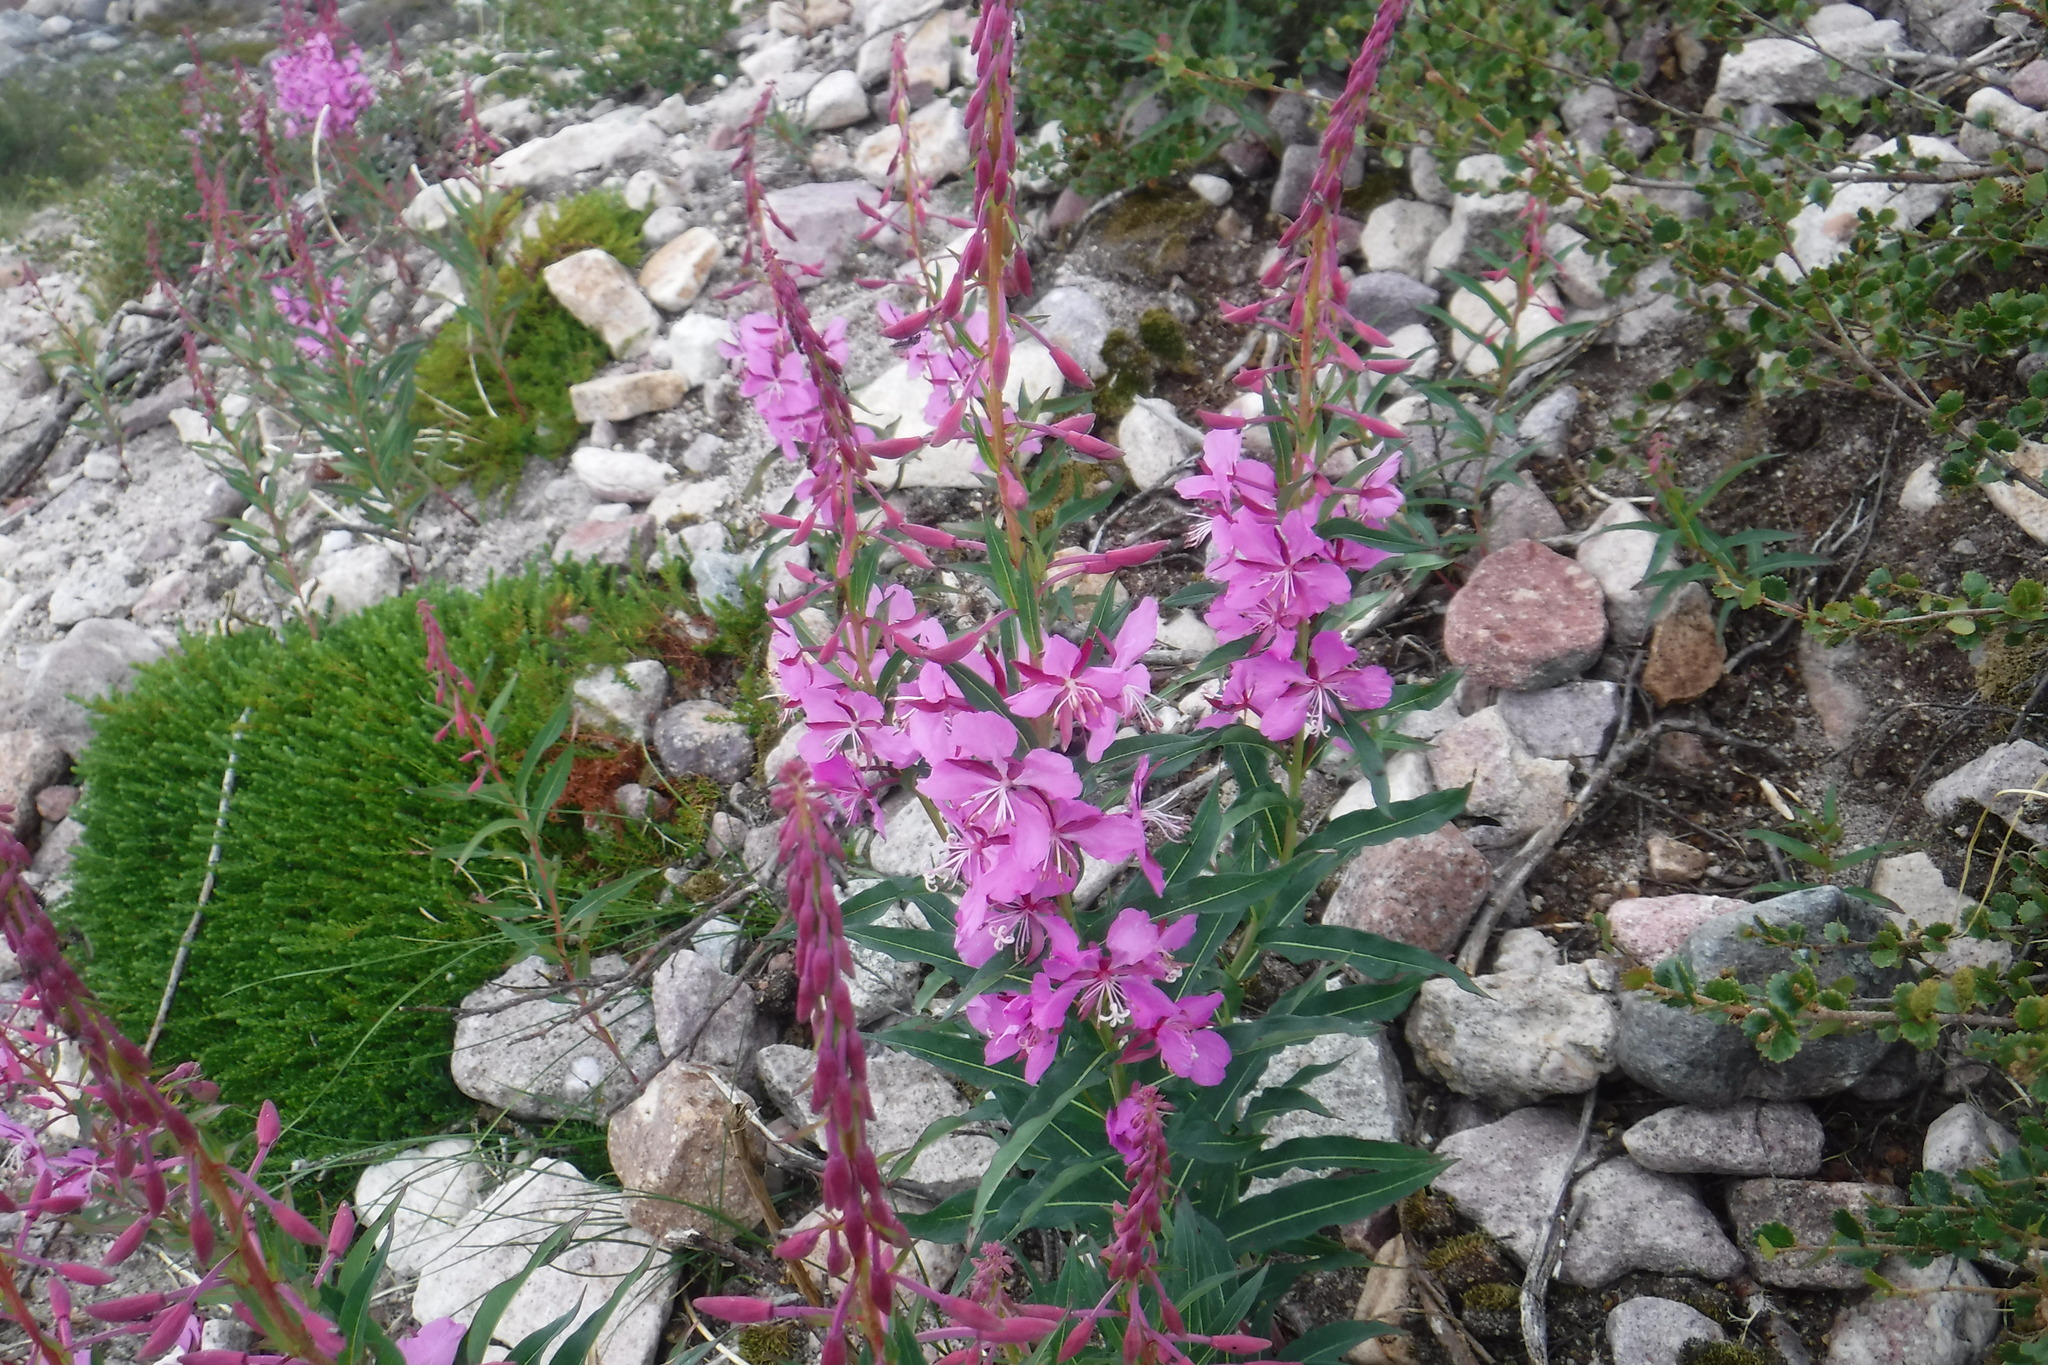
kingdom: Plantae
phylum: Tracheophyta
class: Magnoliopsida
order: Myrtales
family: Onagraceae
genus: Chamaenerion
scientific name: Chamaenerion angustifolium
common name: Fireweed
